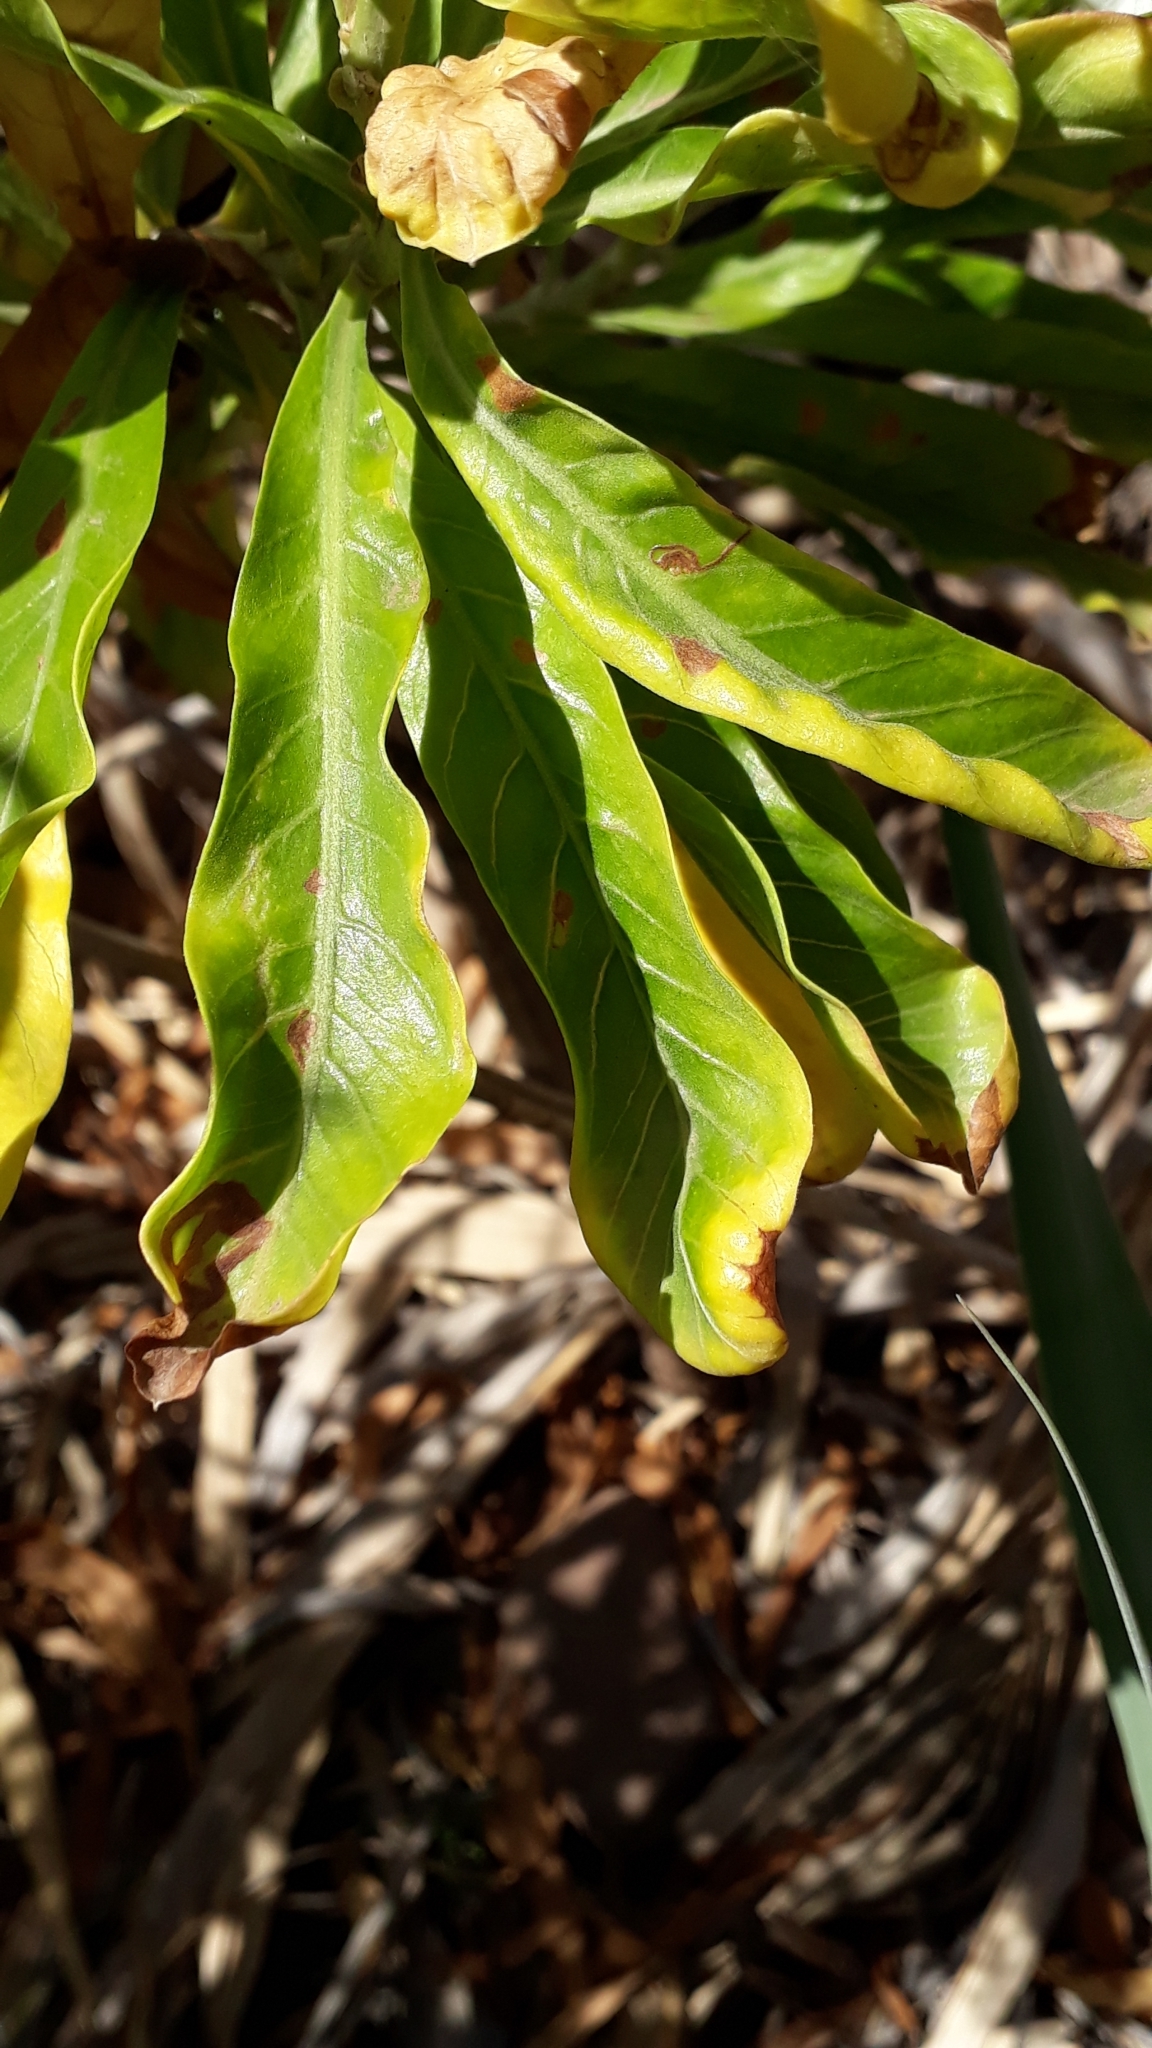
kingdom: Plantae
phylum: Tracheophyta
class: Magnoliopsida
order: Solanales
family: Convolvulaceae
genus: Convolvulus
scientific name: Convolvulus floridus
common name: Guadil
